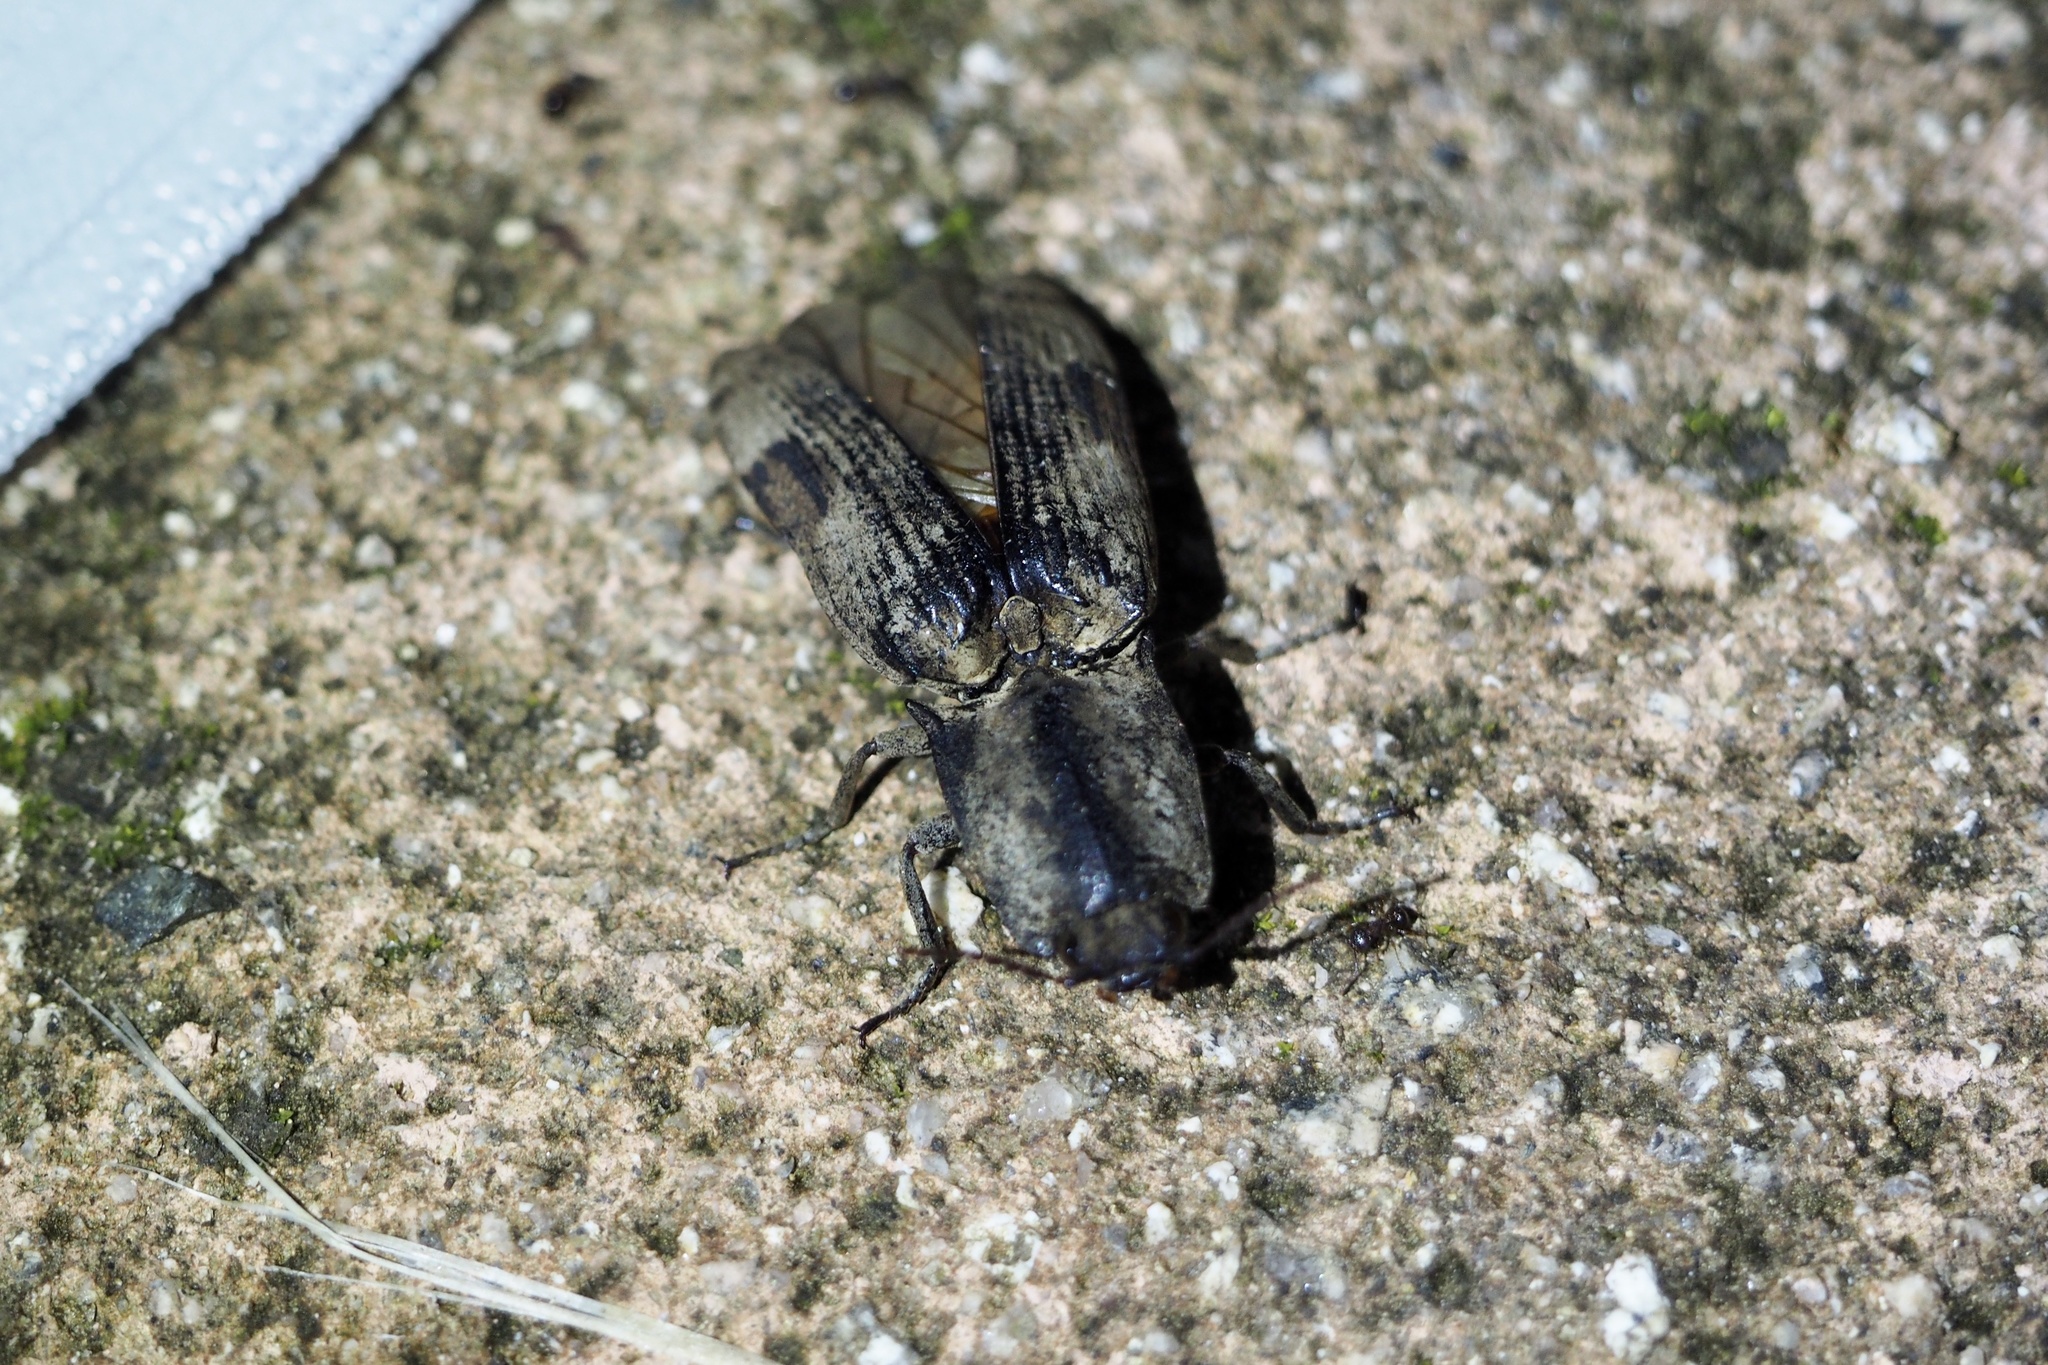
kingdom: Animalia
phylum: Arthropoda
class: Insecta
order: Coleoptera
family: Elateridae
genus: Cryptalaus
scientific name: Cryptalaus larvatus
